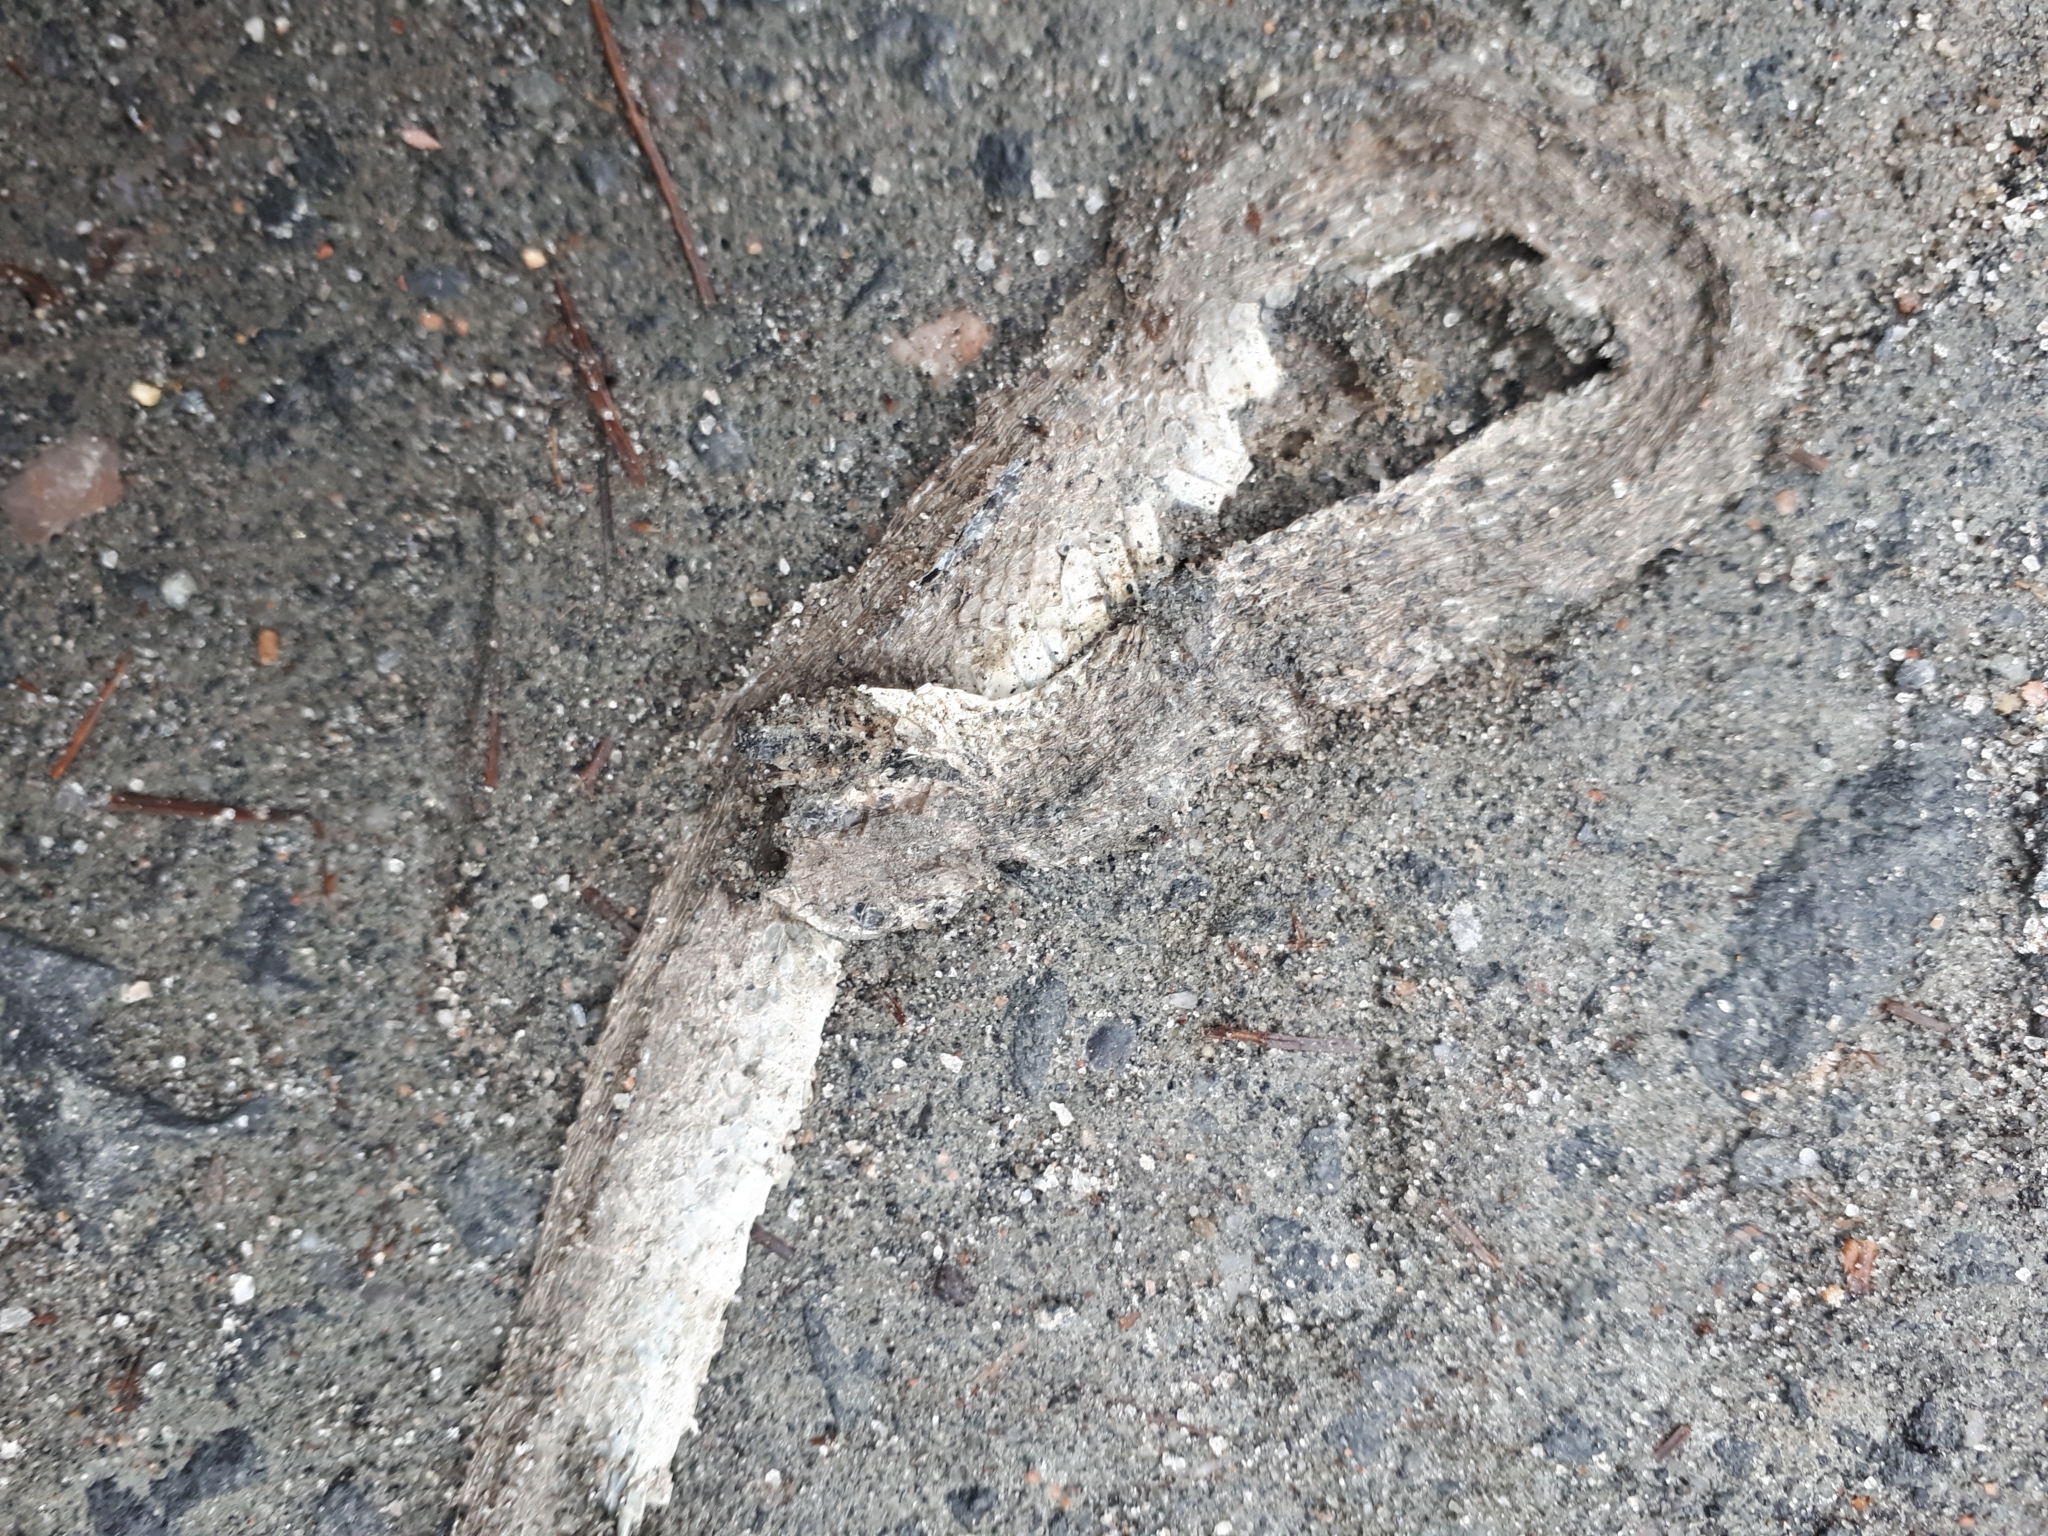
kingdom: Animalia
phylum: Chordata
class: Squamata
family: Colubridae
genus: Storeria
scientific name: Storeria dekayi
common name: (dekay’s) brown snake
